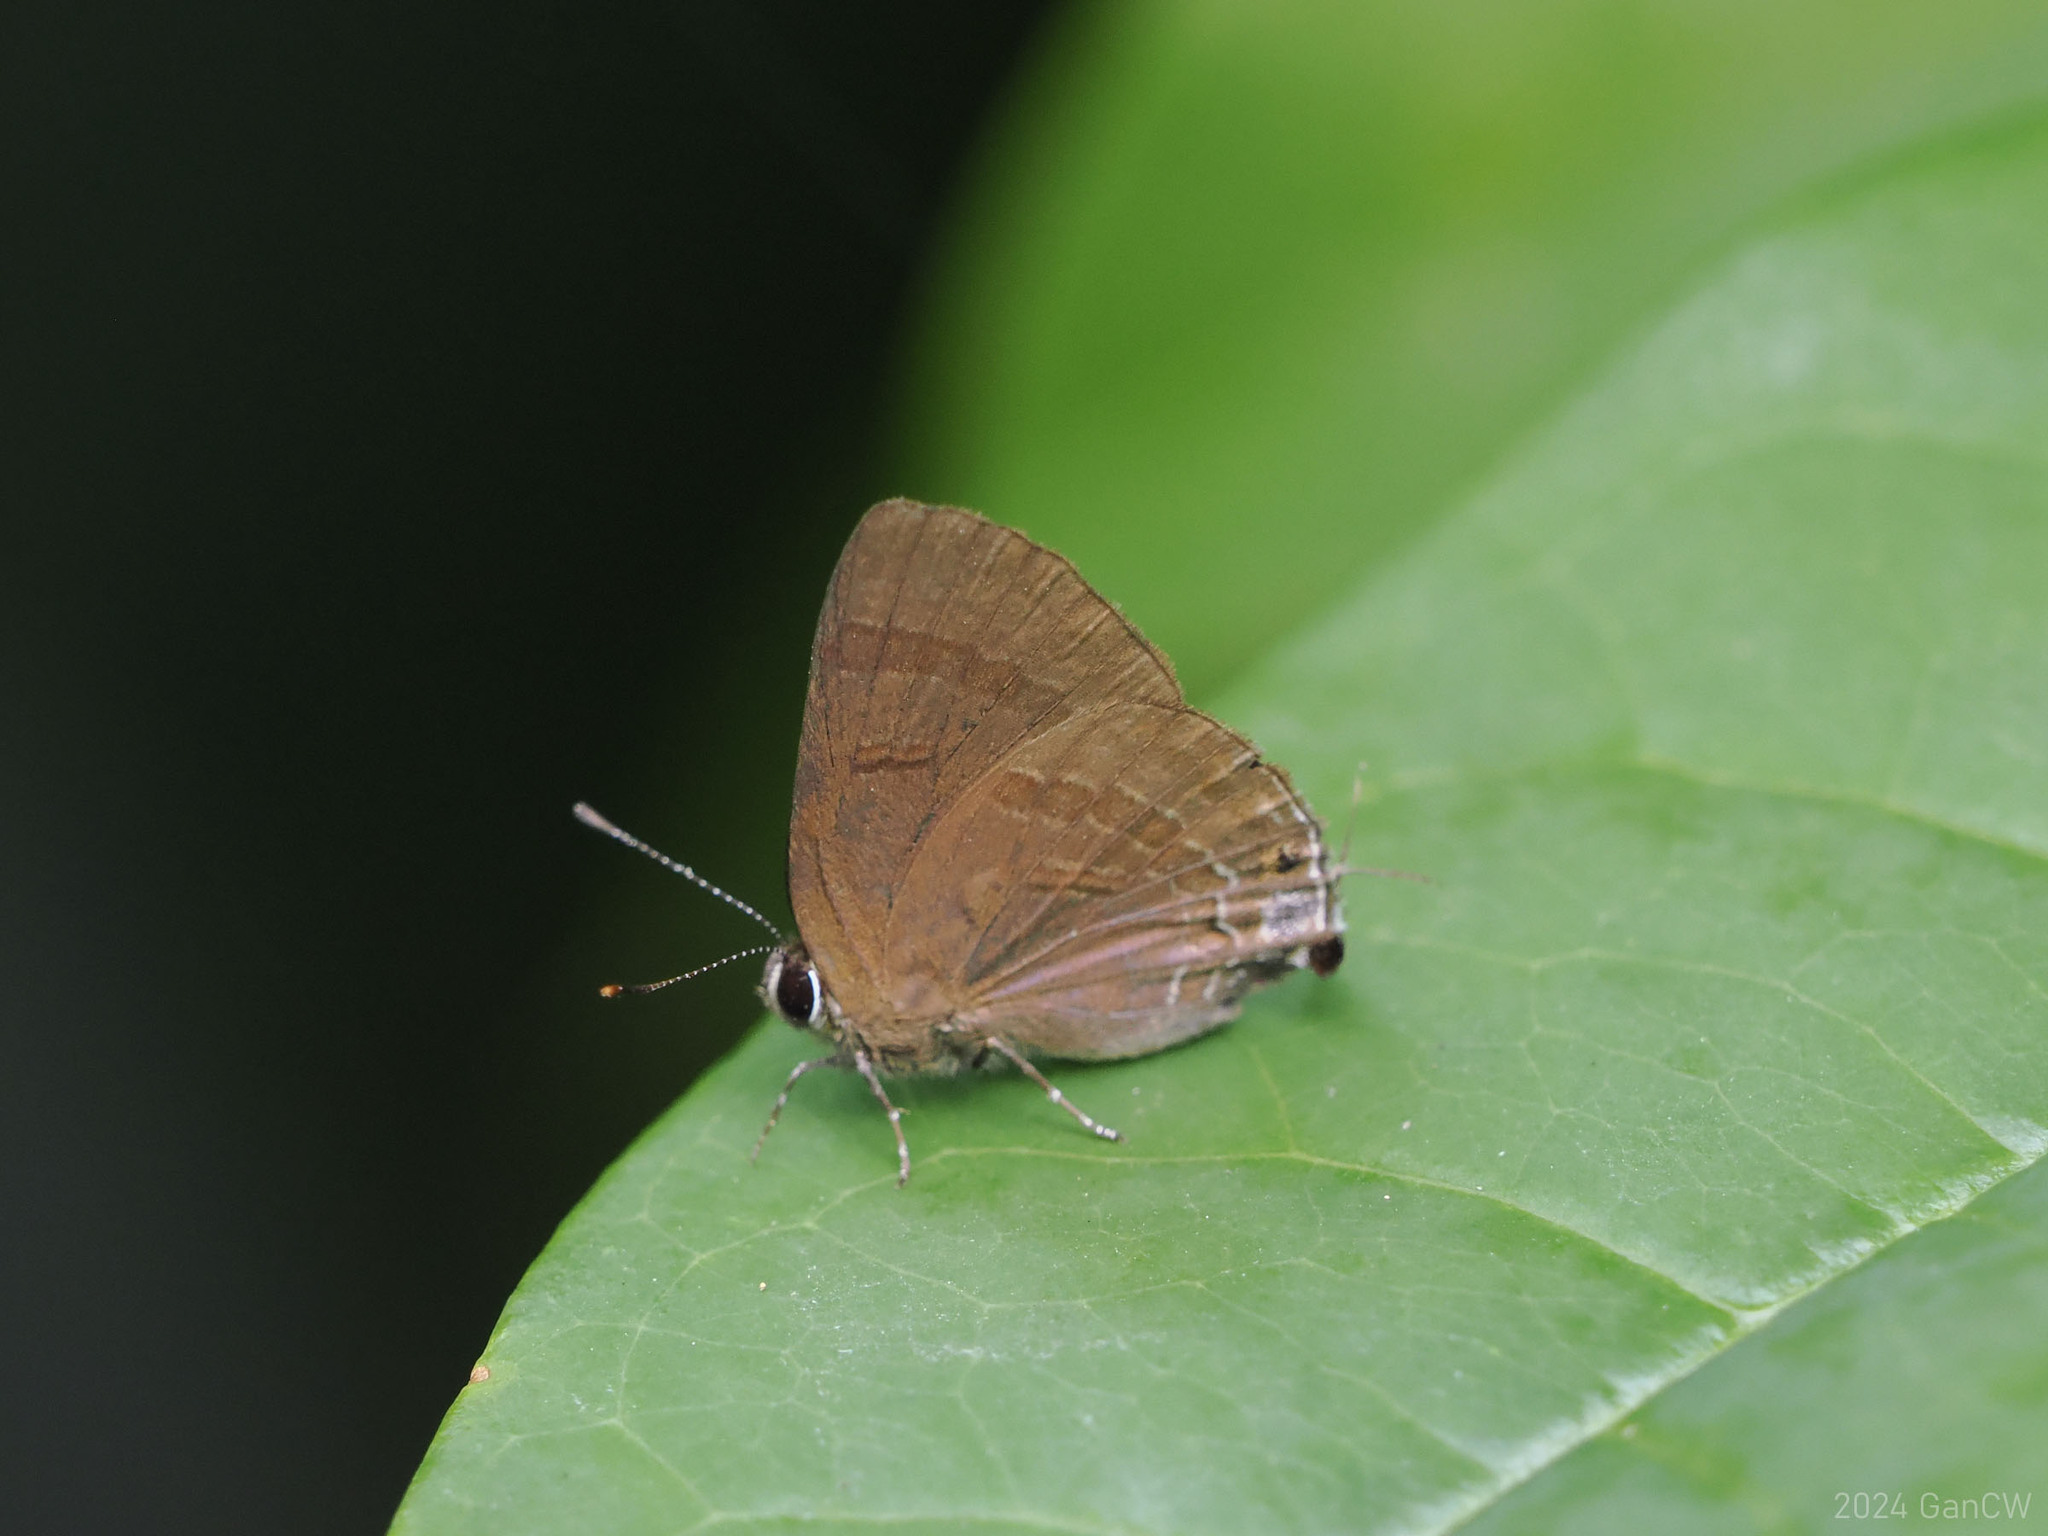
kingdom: Animalia
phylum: Arthropoda
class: Insecta
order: Lepidoptera
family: Lycaenidae
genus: Rapala
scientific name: Rapala varuna
